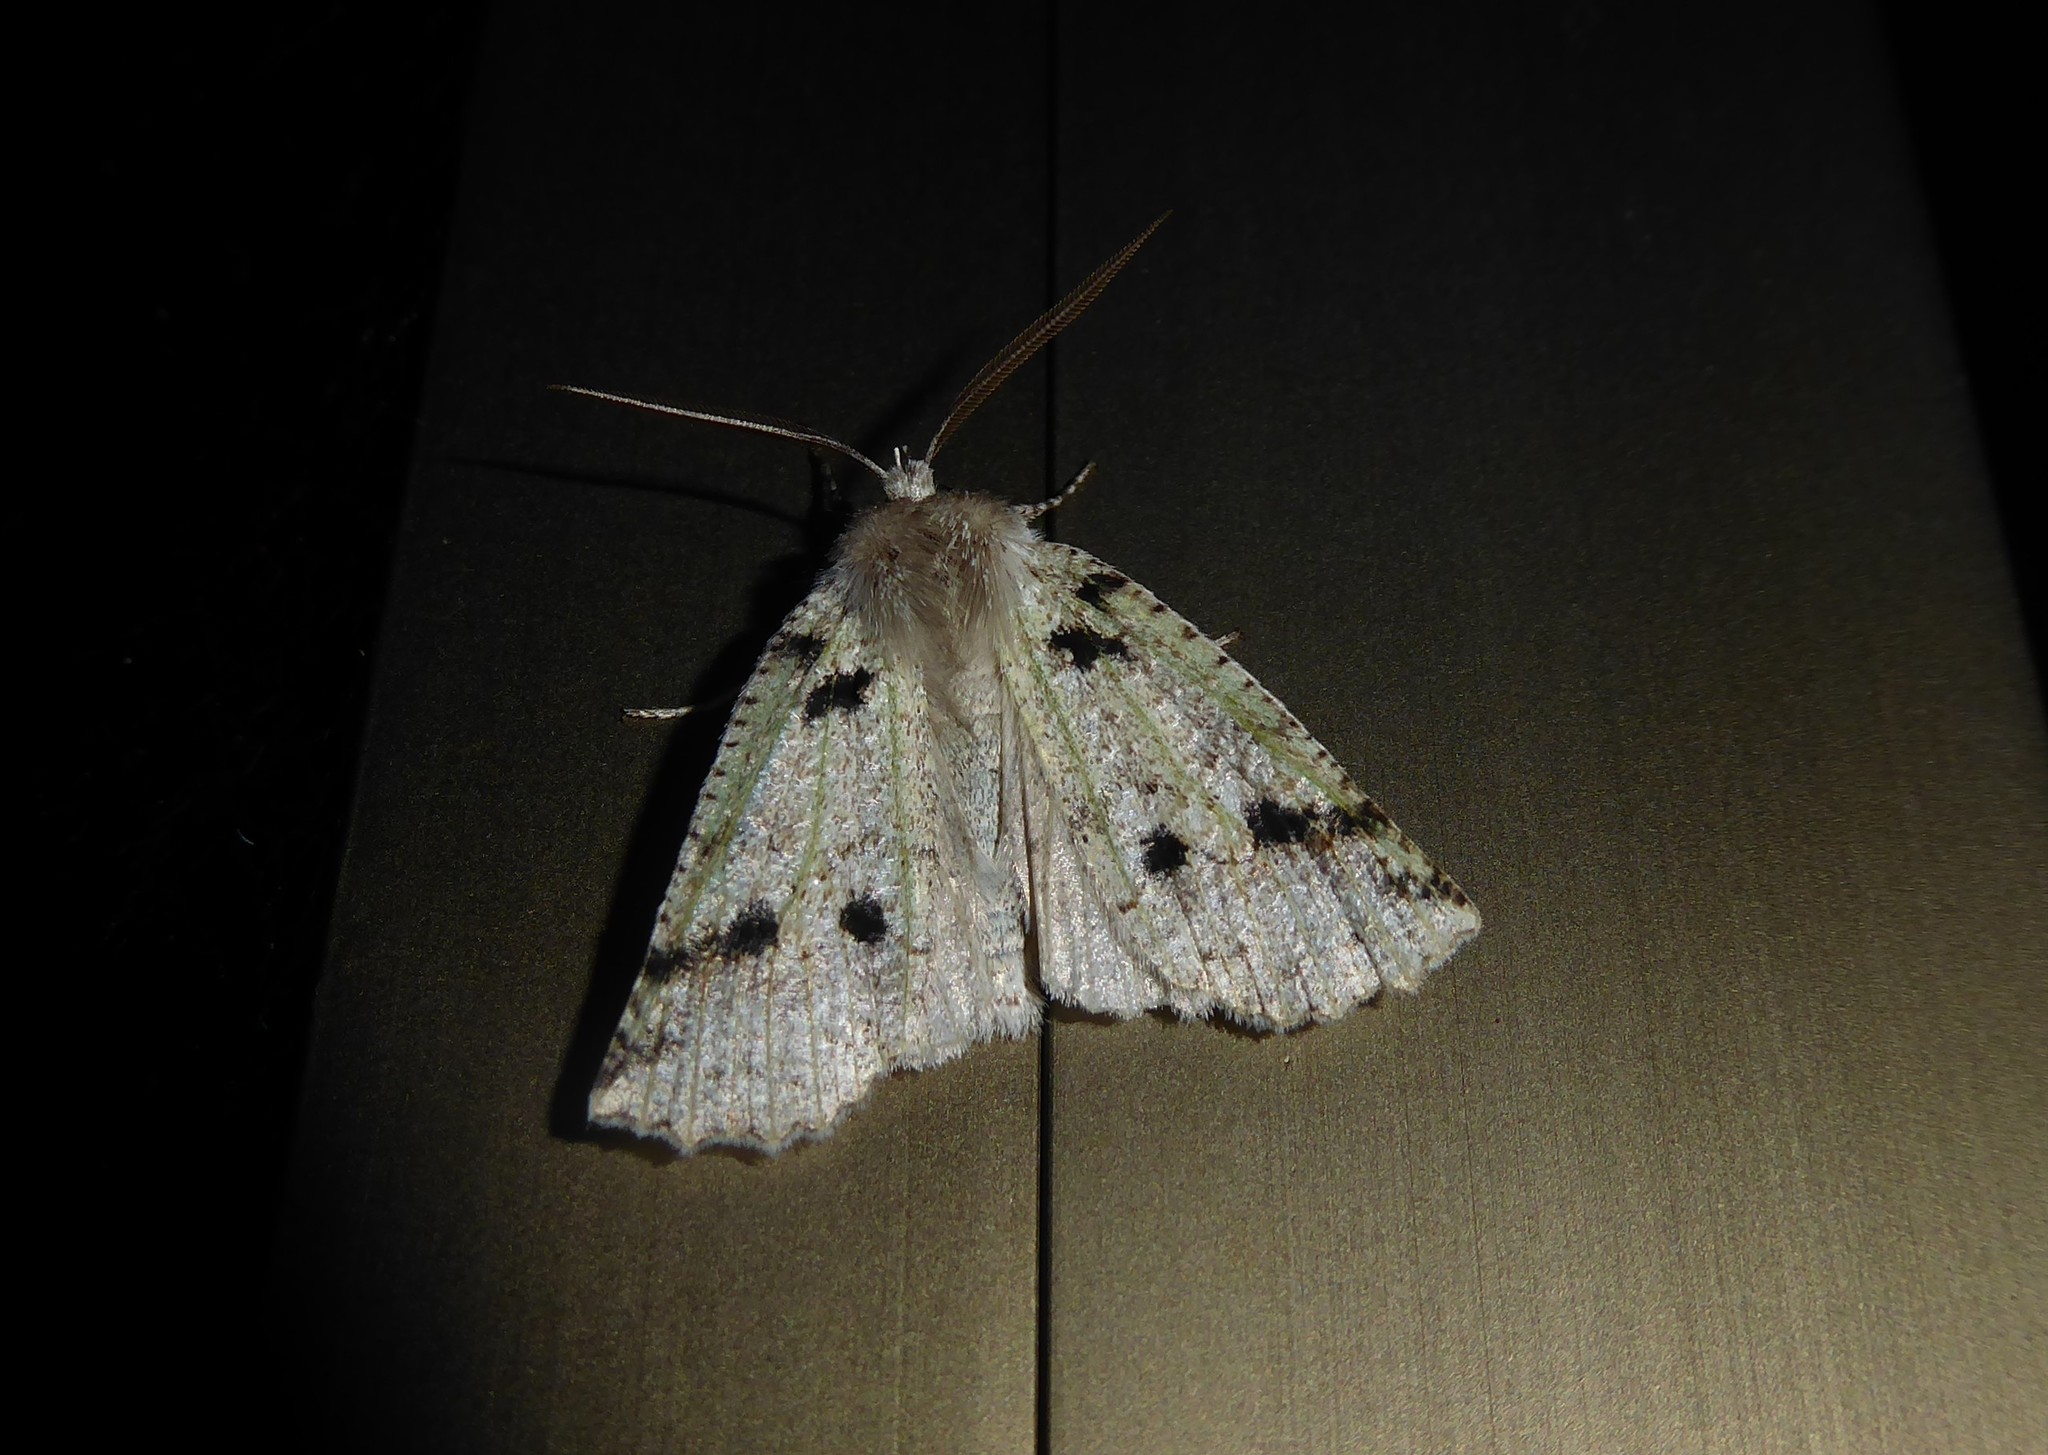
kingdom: Animalia
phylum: Arthropoda
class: Insecta
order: Lepidoptera
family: Geometridae
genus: Declana
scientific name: Declana floccosa
